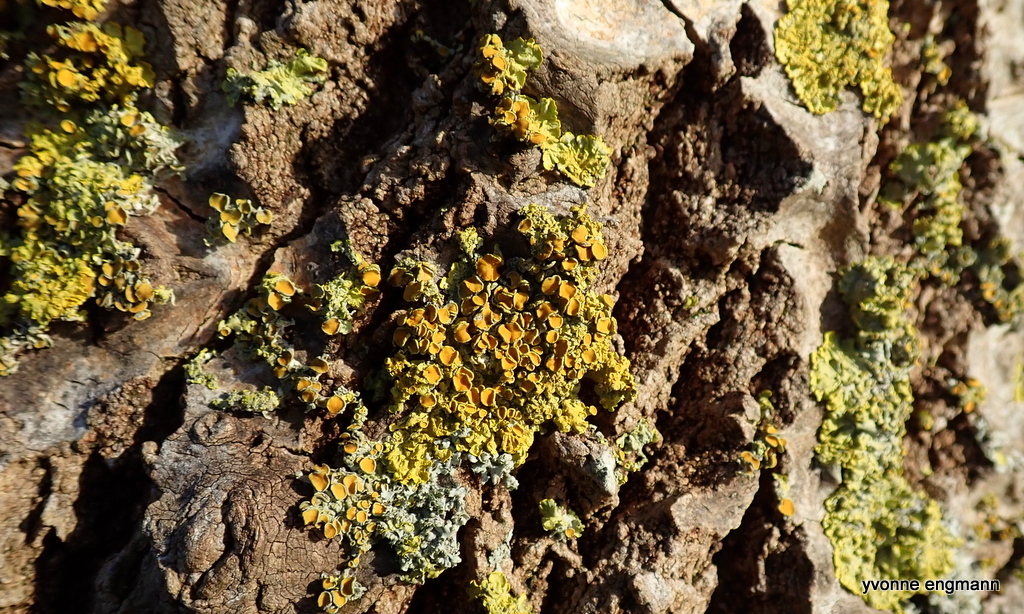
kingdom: Fungi
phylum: Ascomycota
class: Lecanoromycetes
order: Teloschistales
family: Teloschistaceae
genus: Xanthoria
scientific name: Xanthoria parietina
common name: Common orange lichen
